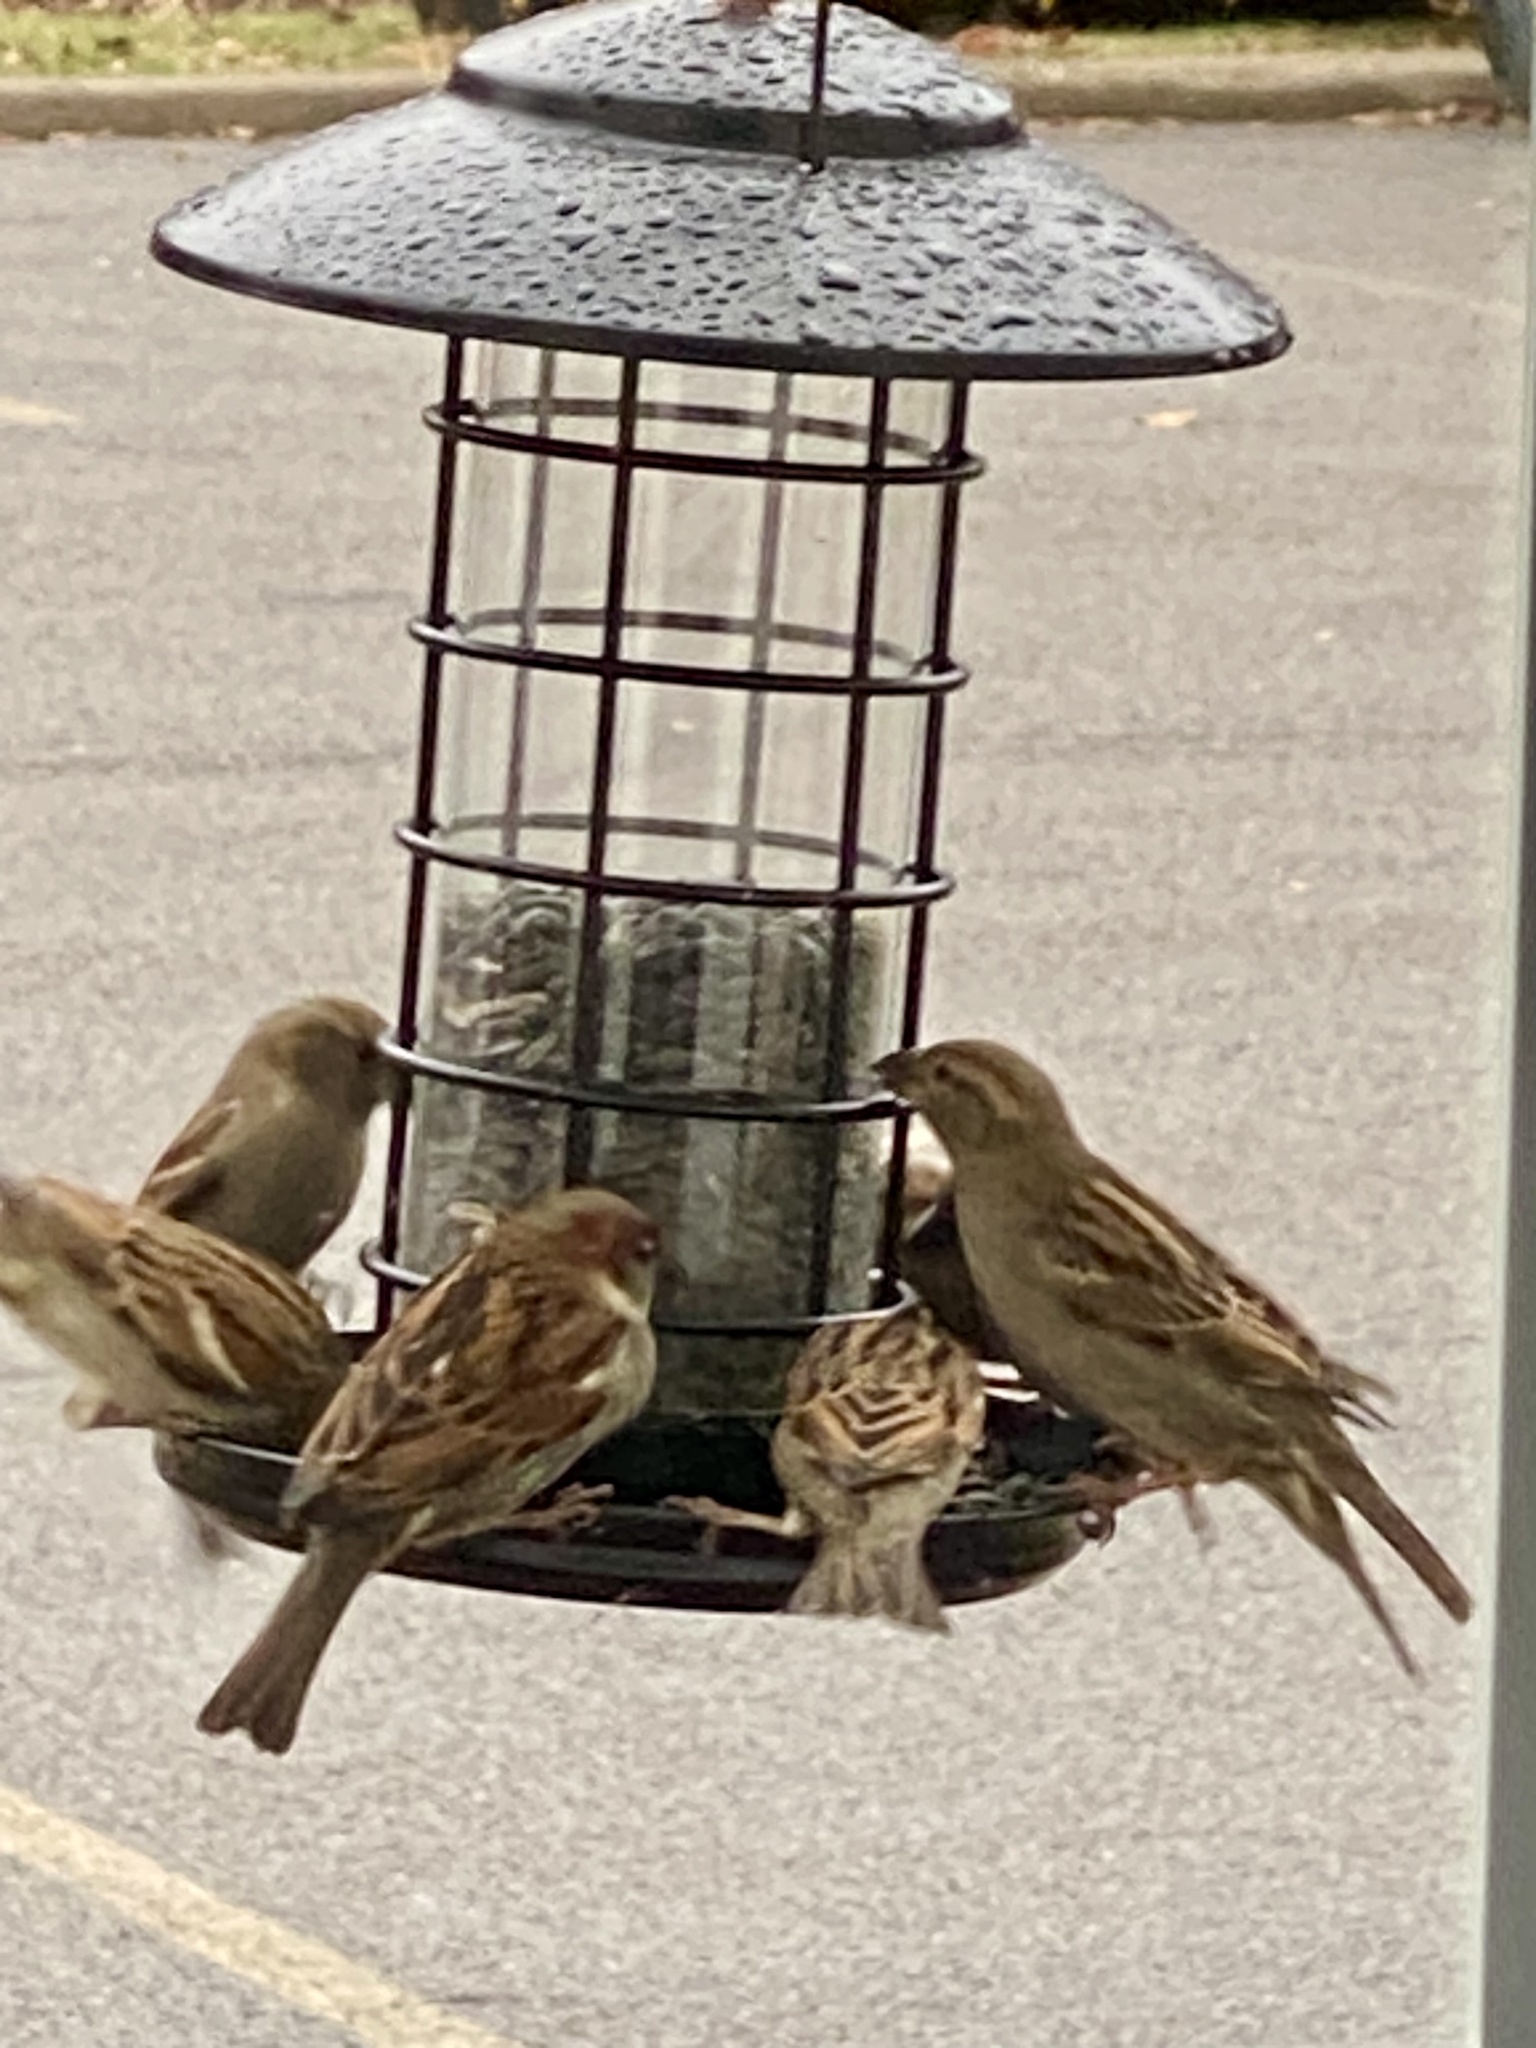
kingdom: Animalia
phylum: Chordata
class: Aves
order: Passeriformes
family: Passeridae
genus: Passer
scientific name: Passer domesticus
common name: House sparrow
